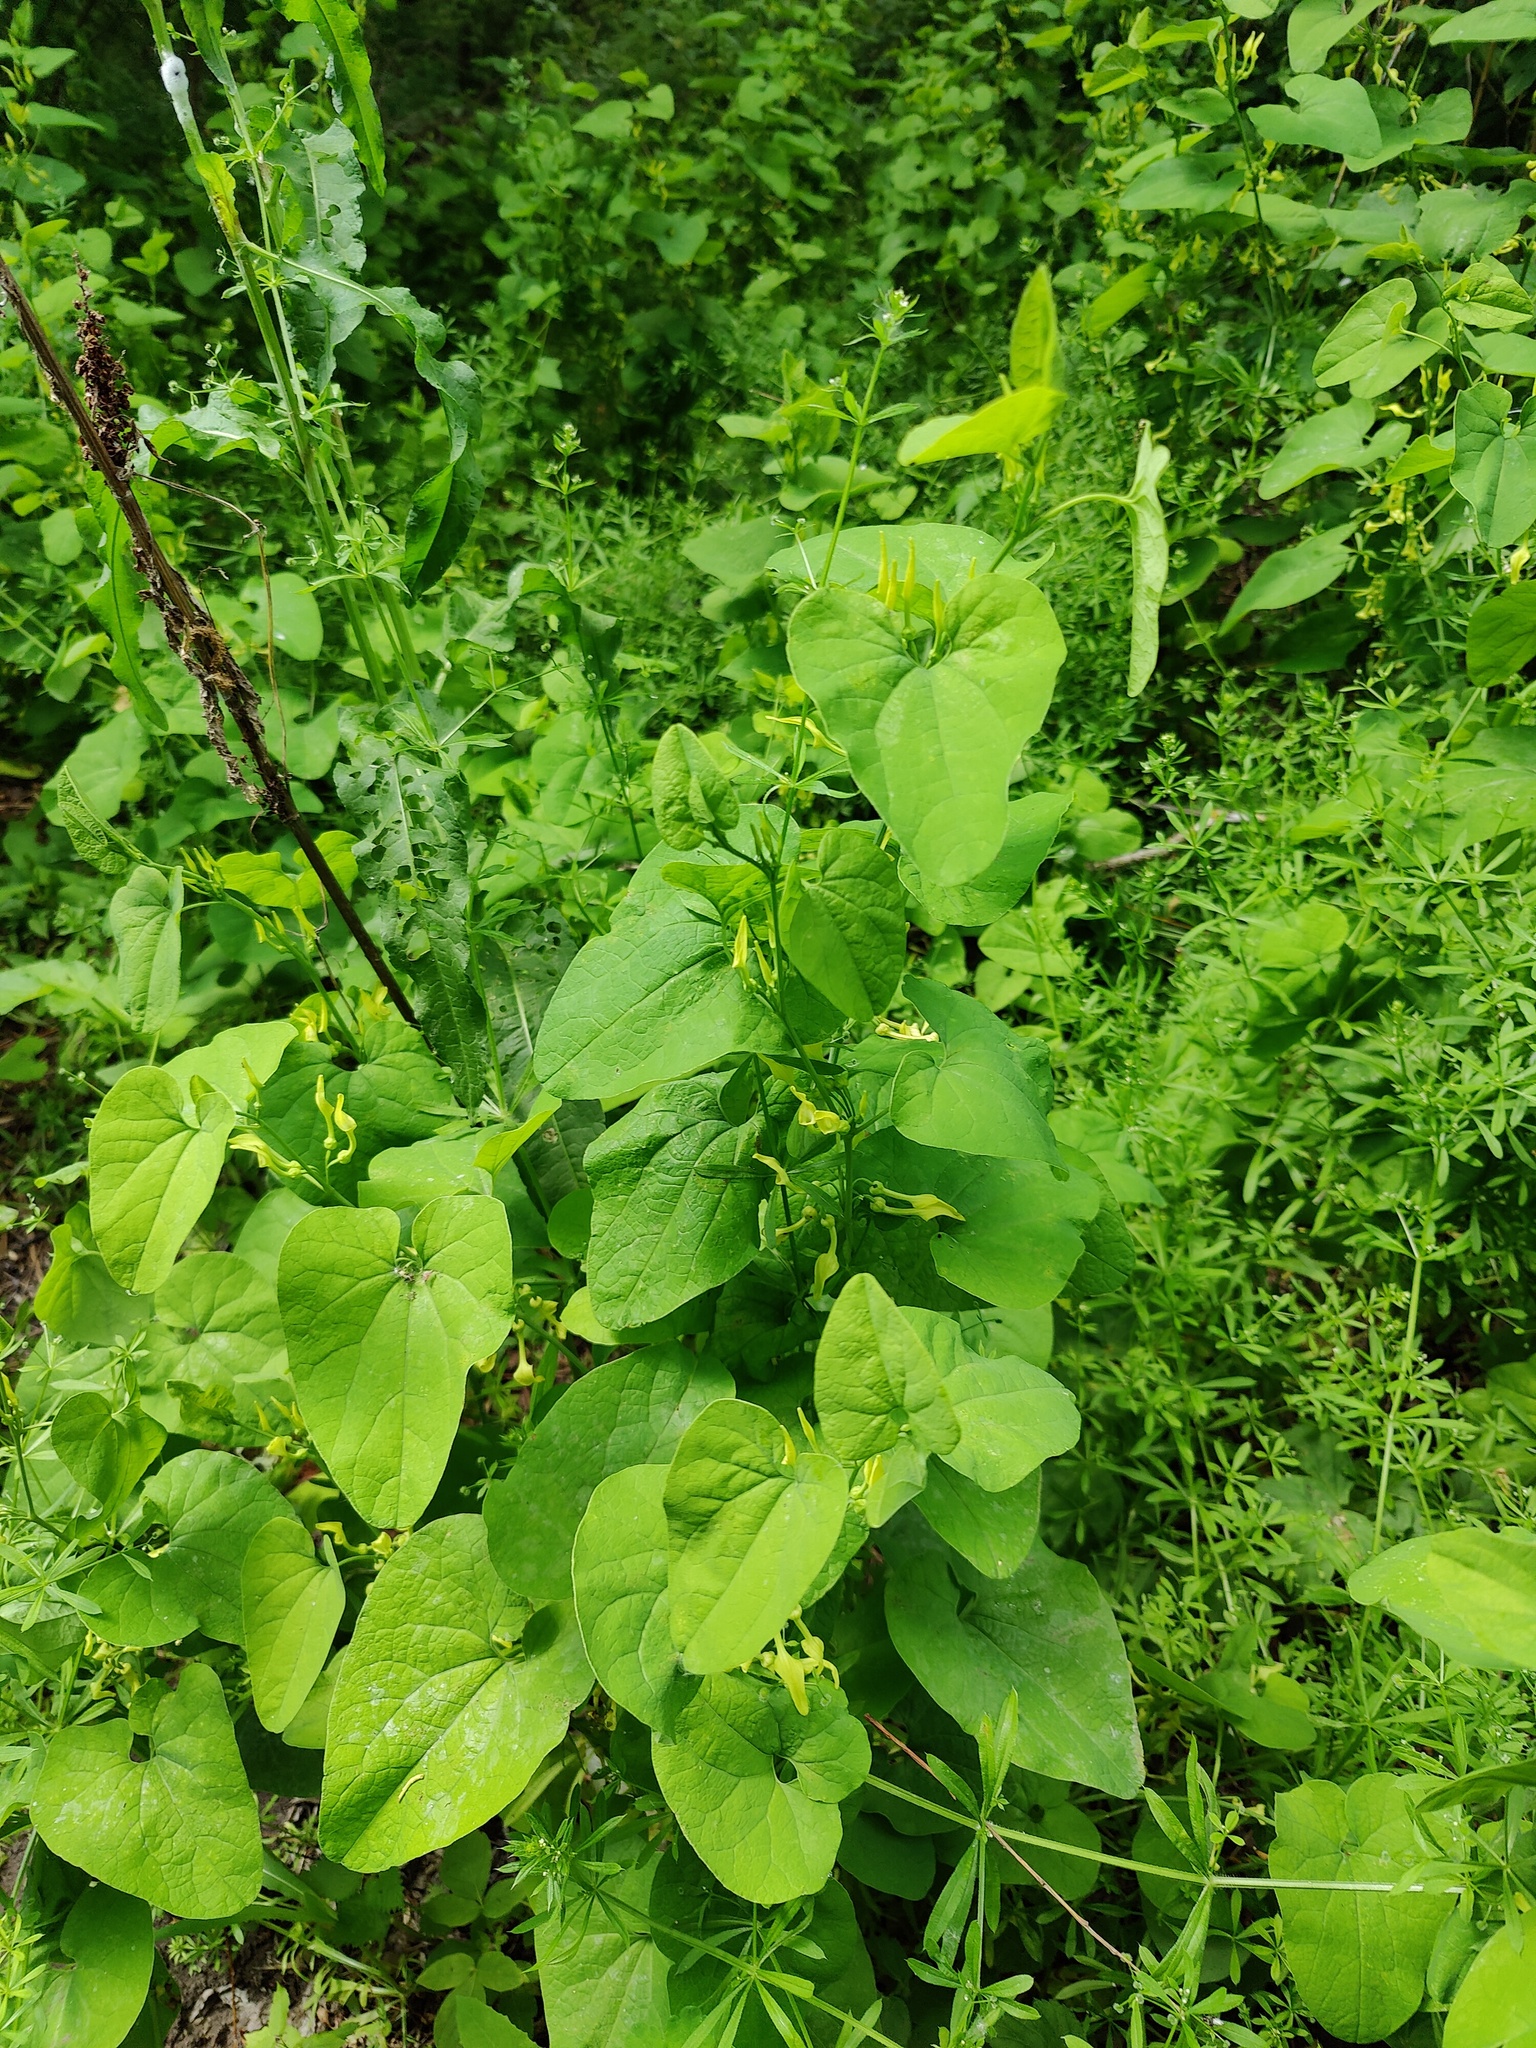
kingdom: Plantae
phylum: Tracheophyta
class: Magnoliopsida
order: Piperales
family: Aristolochiaceae
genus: Aristolochia
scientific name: Aristolochia clematitis
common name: Birthwort
